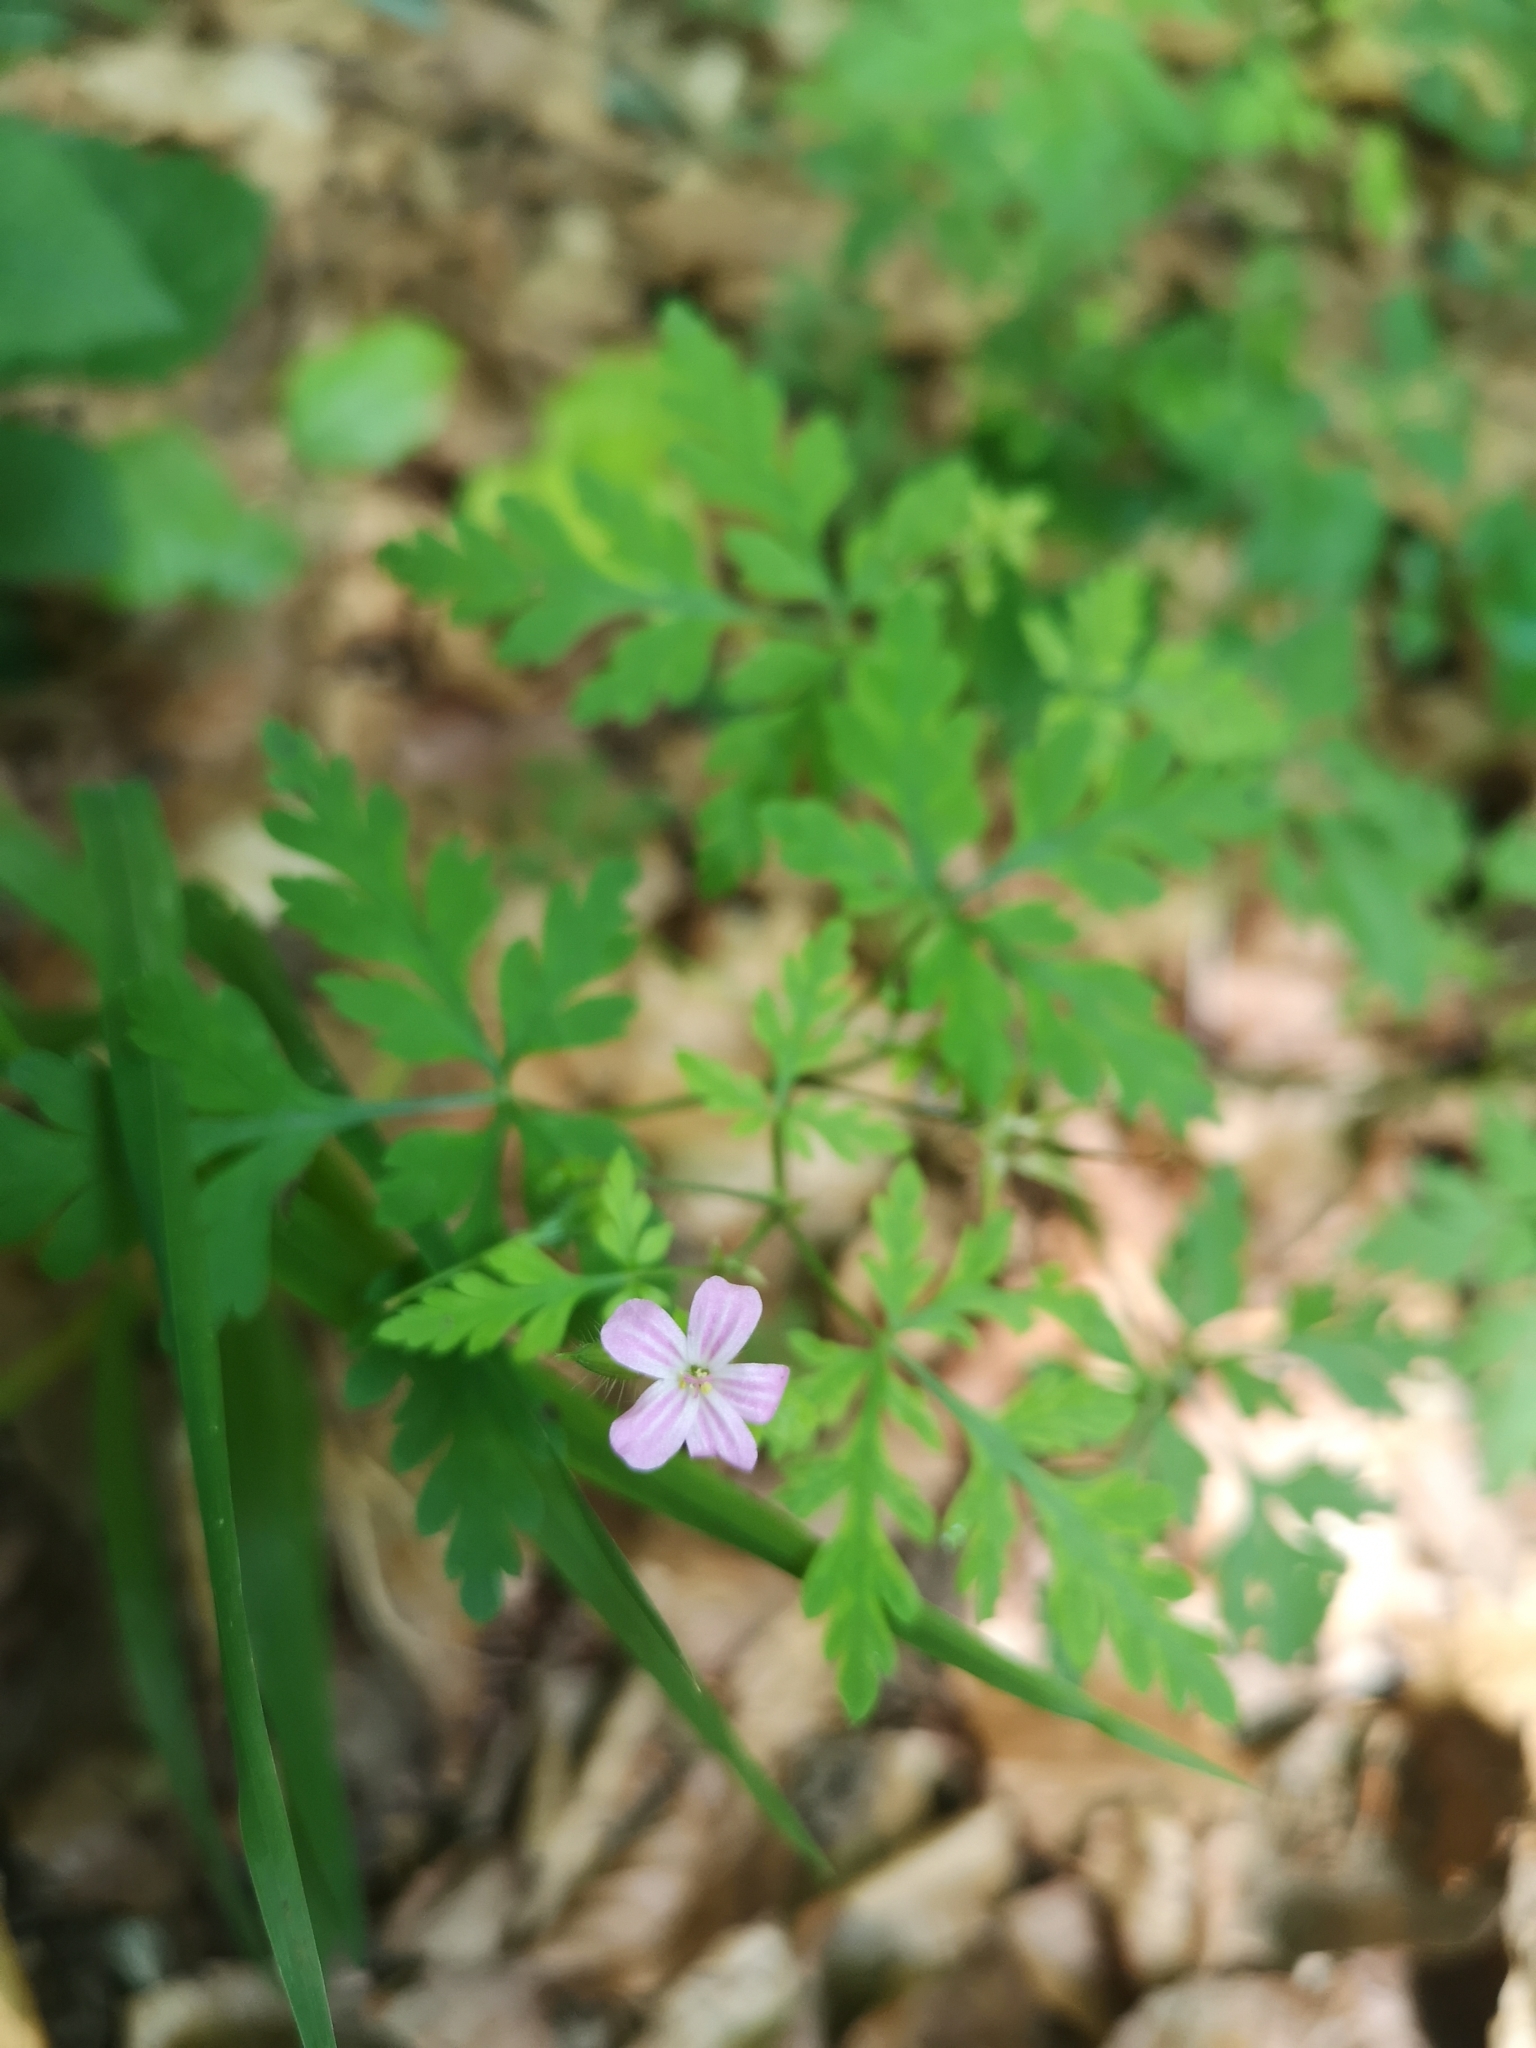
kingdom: Plantae
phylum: Tracheophyta
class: Magnoliopsida
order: Geraniales
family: Geraniaceae
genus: Geranium
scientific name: Geranium robertianum
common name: Herb-robert
